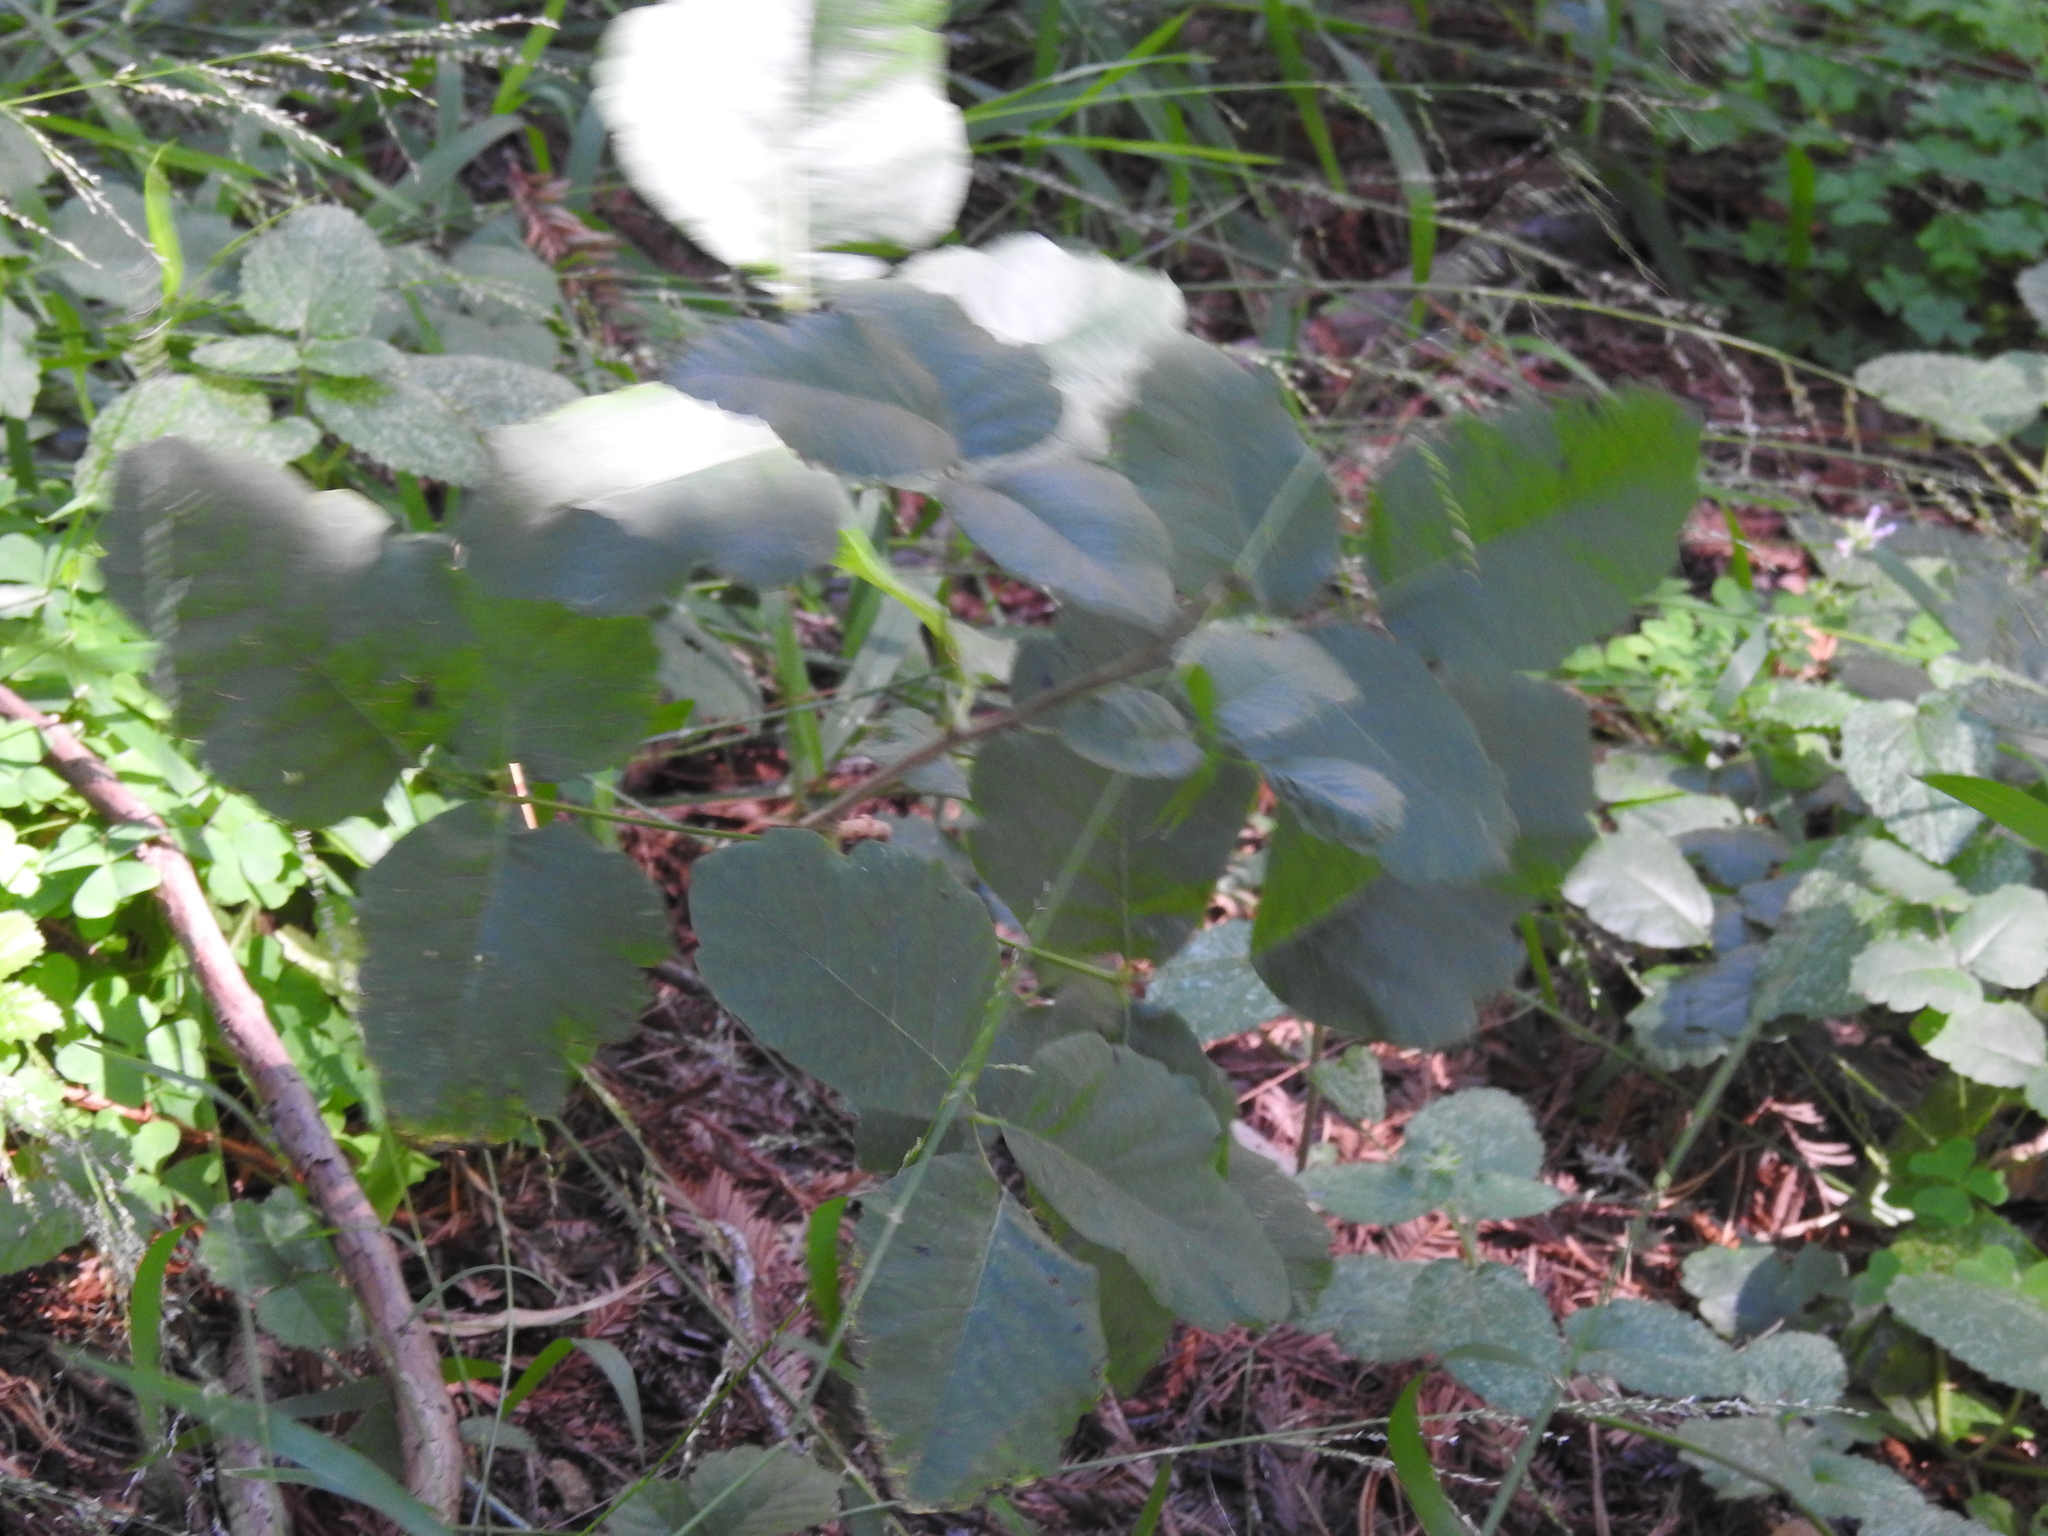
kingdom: Plantae
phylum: Tracheophyta
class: Magnoliopsida
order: Sapindales
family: Anacardiaceae
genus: Toxicodendron
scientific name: Toxicodendron diversilobum
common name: Pacific poison-oak
